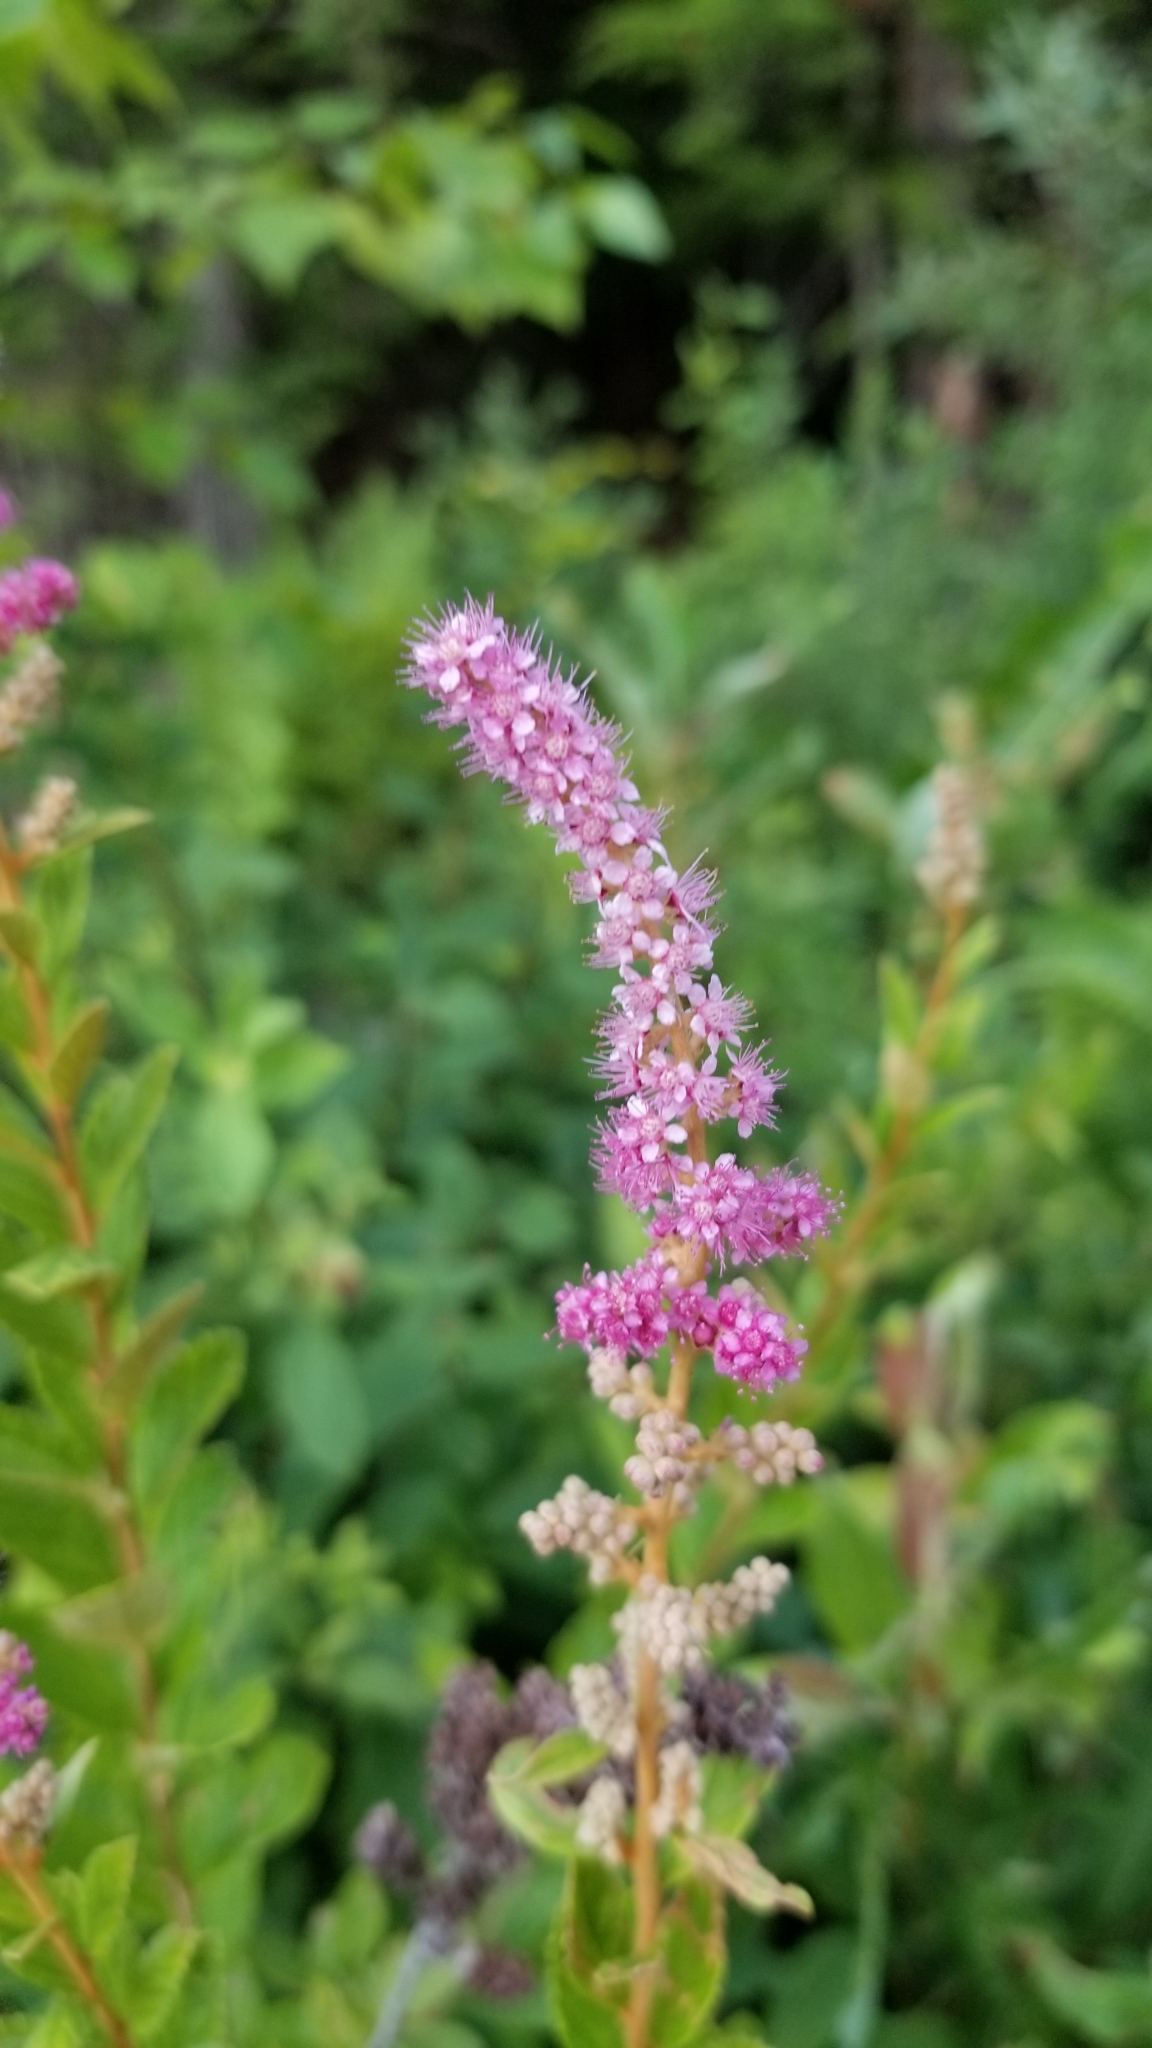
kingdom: Plantae
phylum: Tracheophyta
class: Magnoliopsida
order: Rosales
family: Rosaceae
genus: Spiraea
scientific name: Spiraea tomentosa
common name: Hardhack
